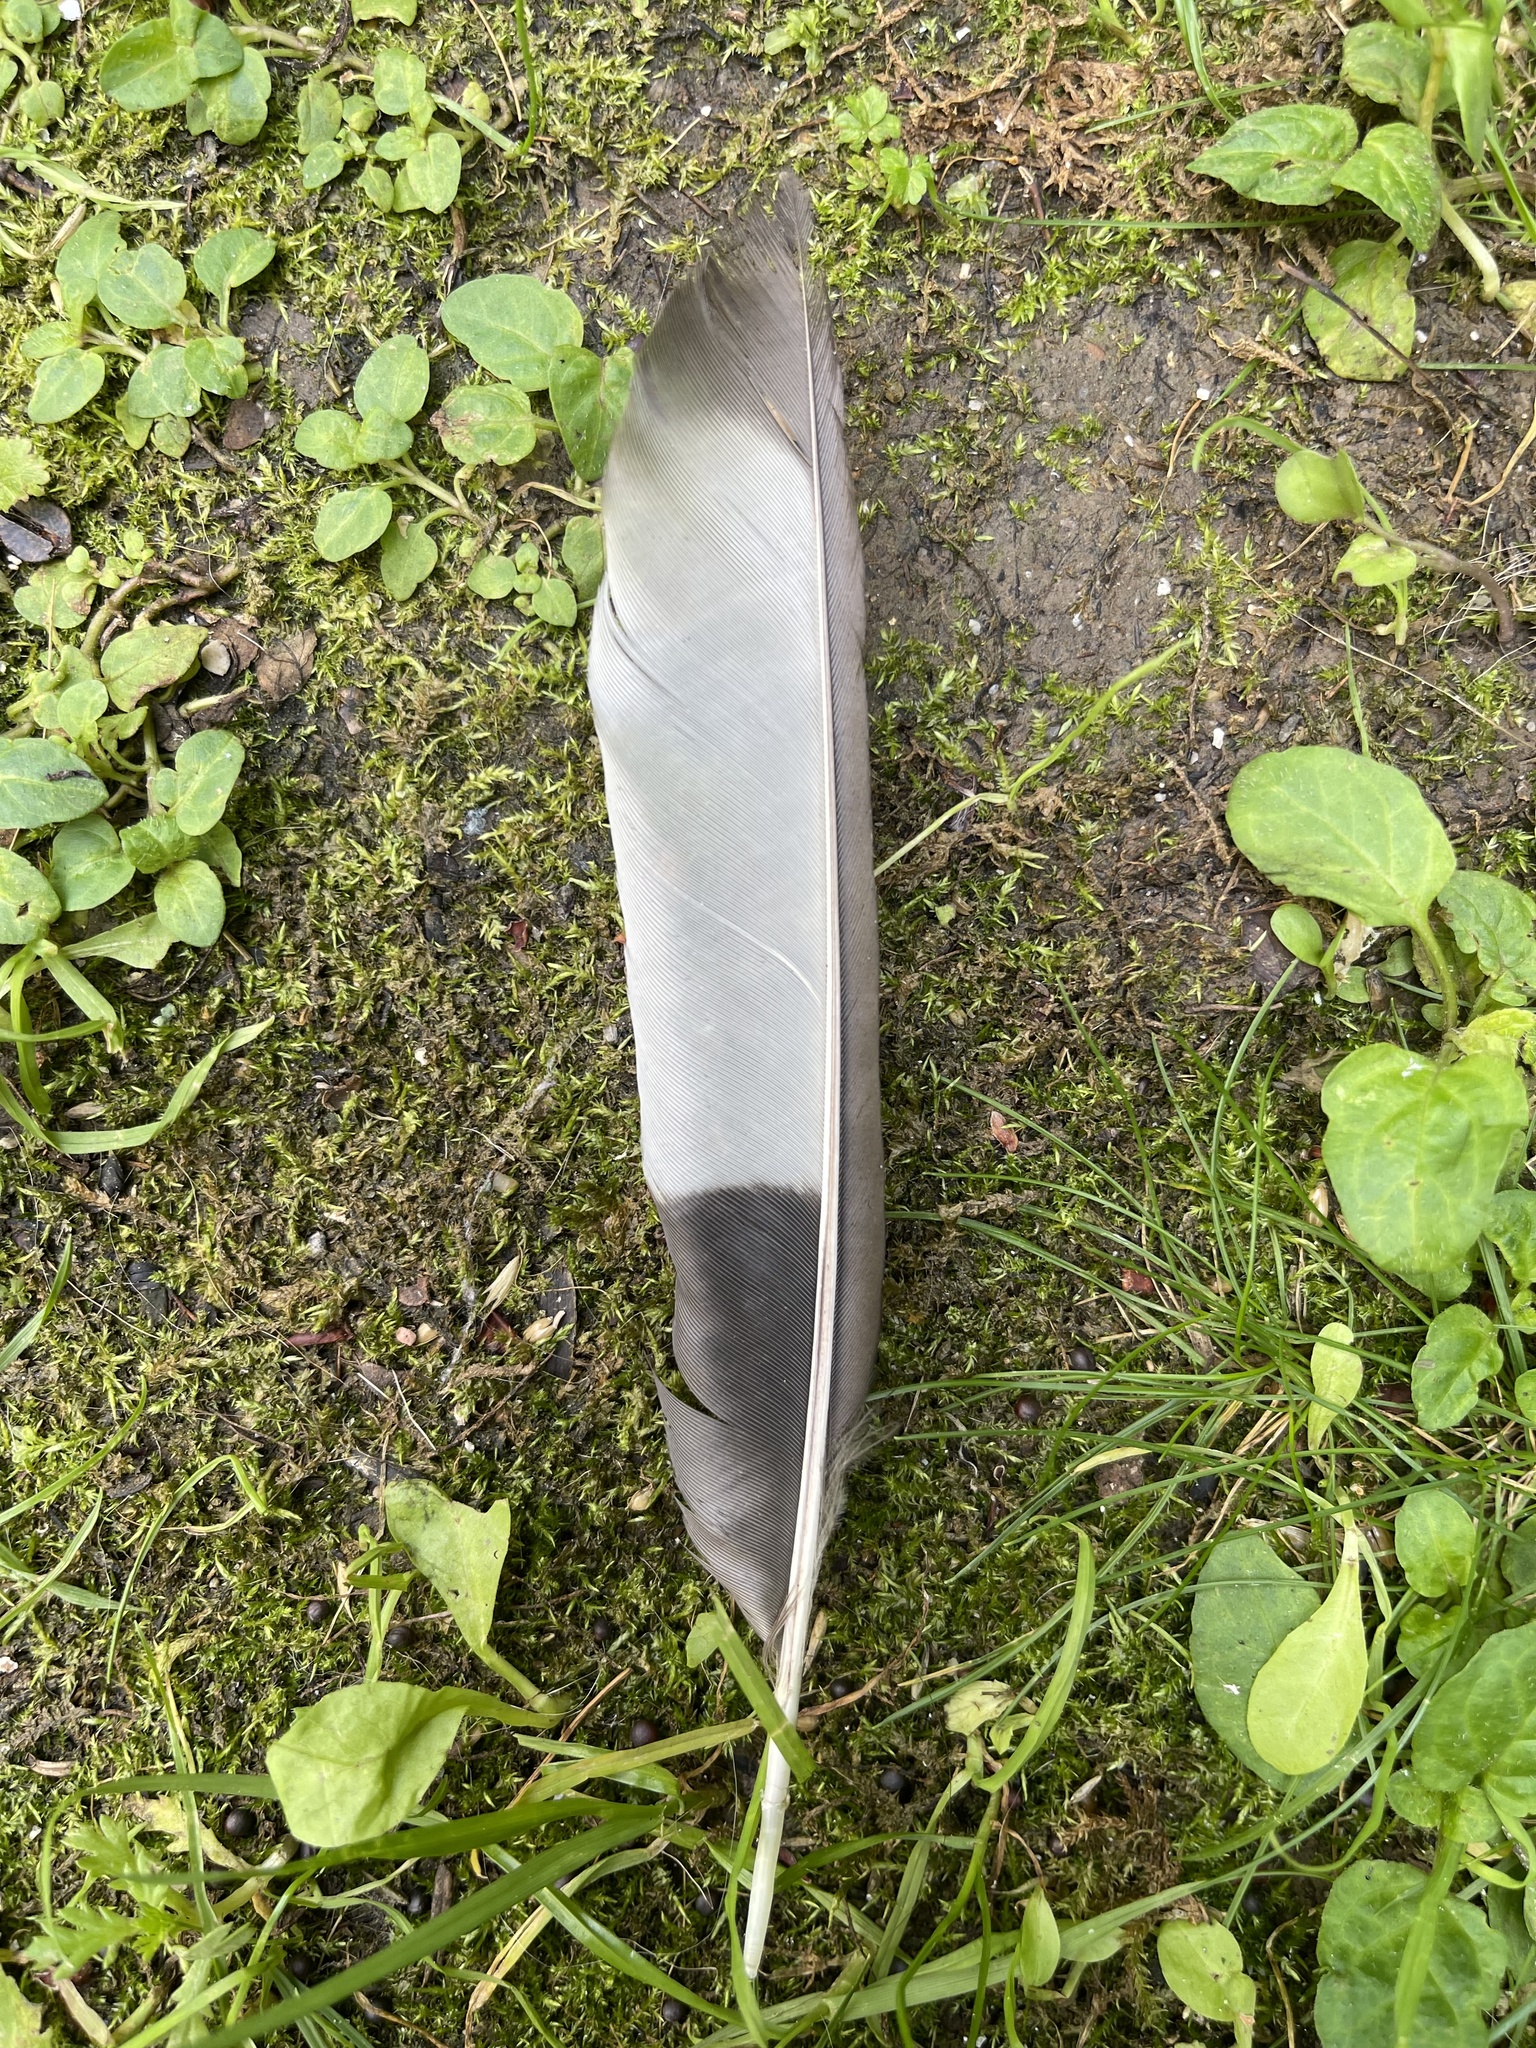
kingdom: Animalia
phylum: Chordata
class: Aves
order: Passeriformes
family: Corvidae
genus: Pica
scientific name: Pica pica
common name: Eurasian magpie
